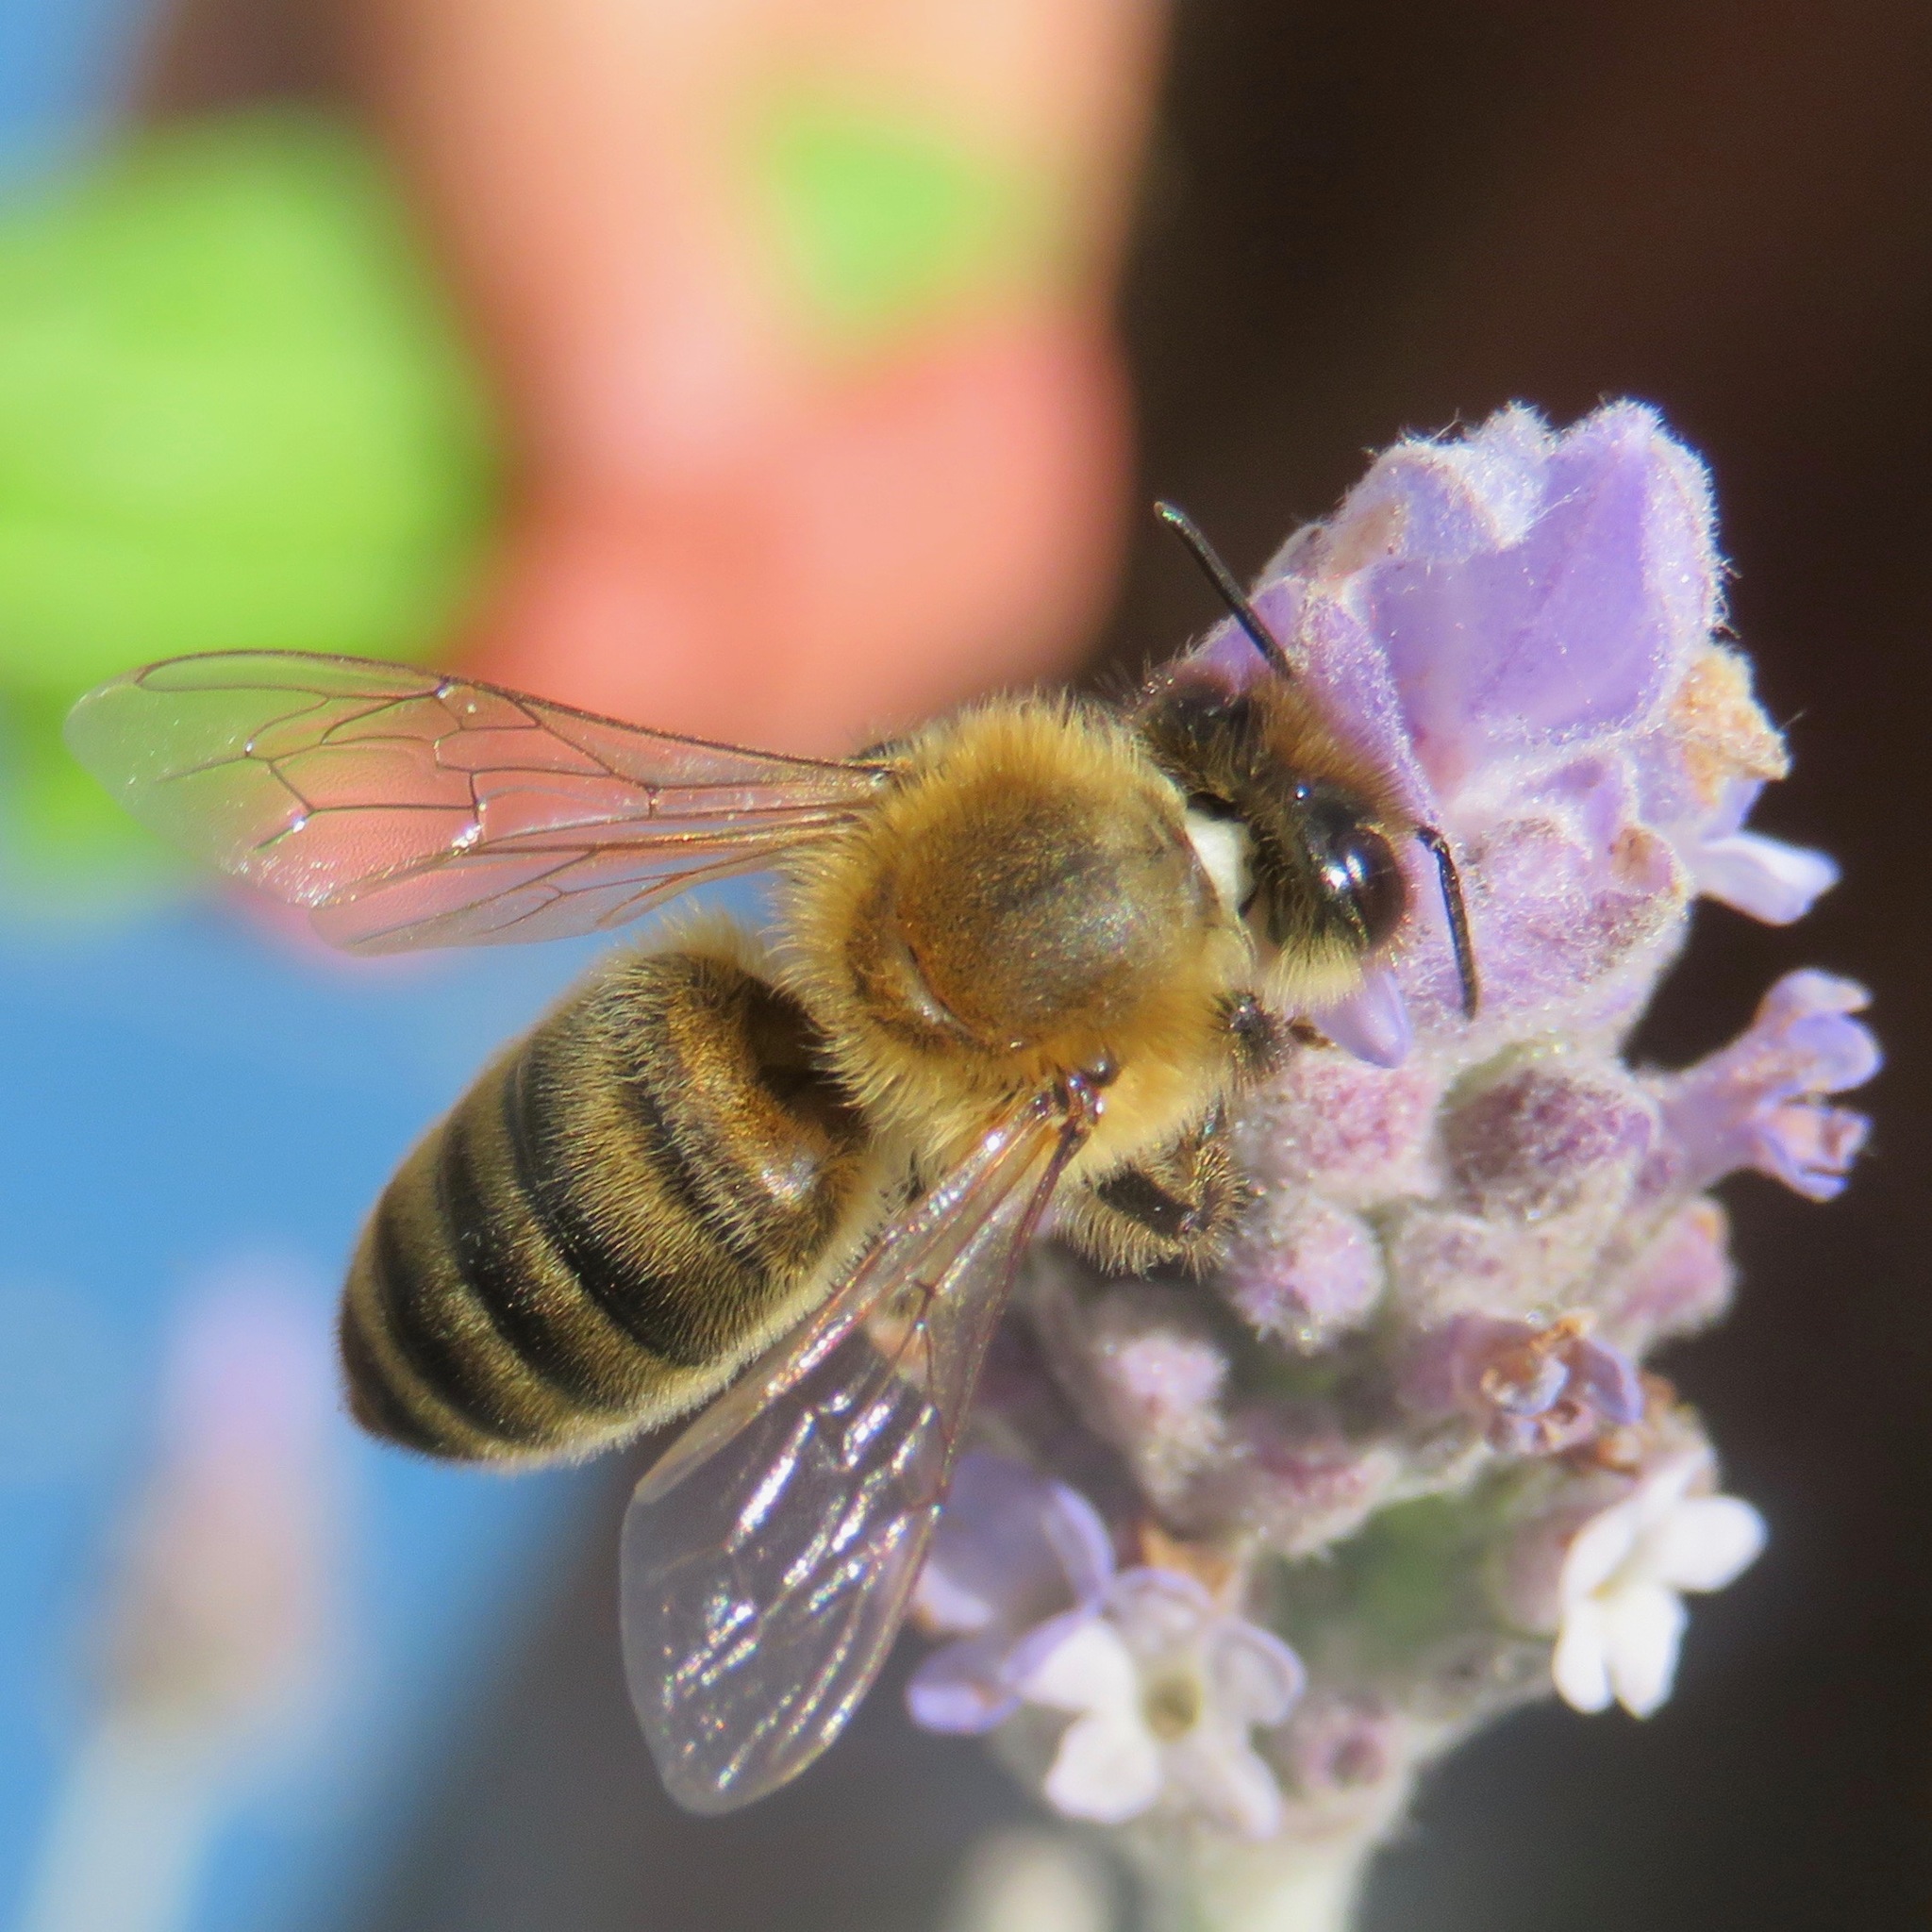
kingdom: Animalia
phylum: Arthropoda
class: Insecta
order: Hymenoptera
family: Apidae
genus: Apis
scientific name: Apis mellifera
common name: Honey bee
